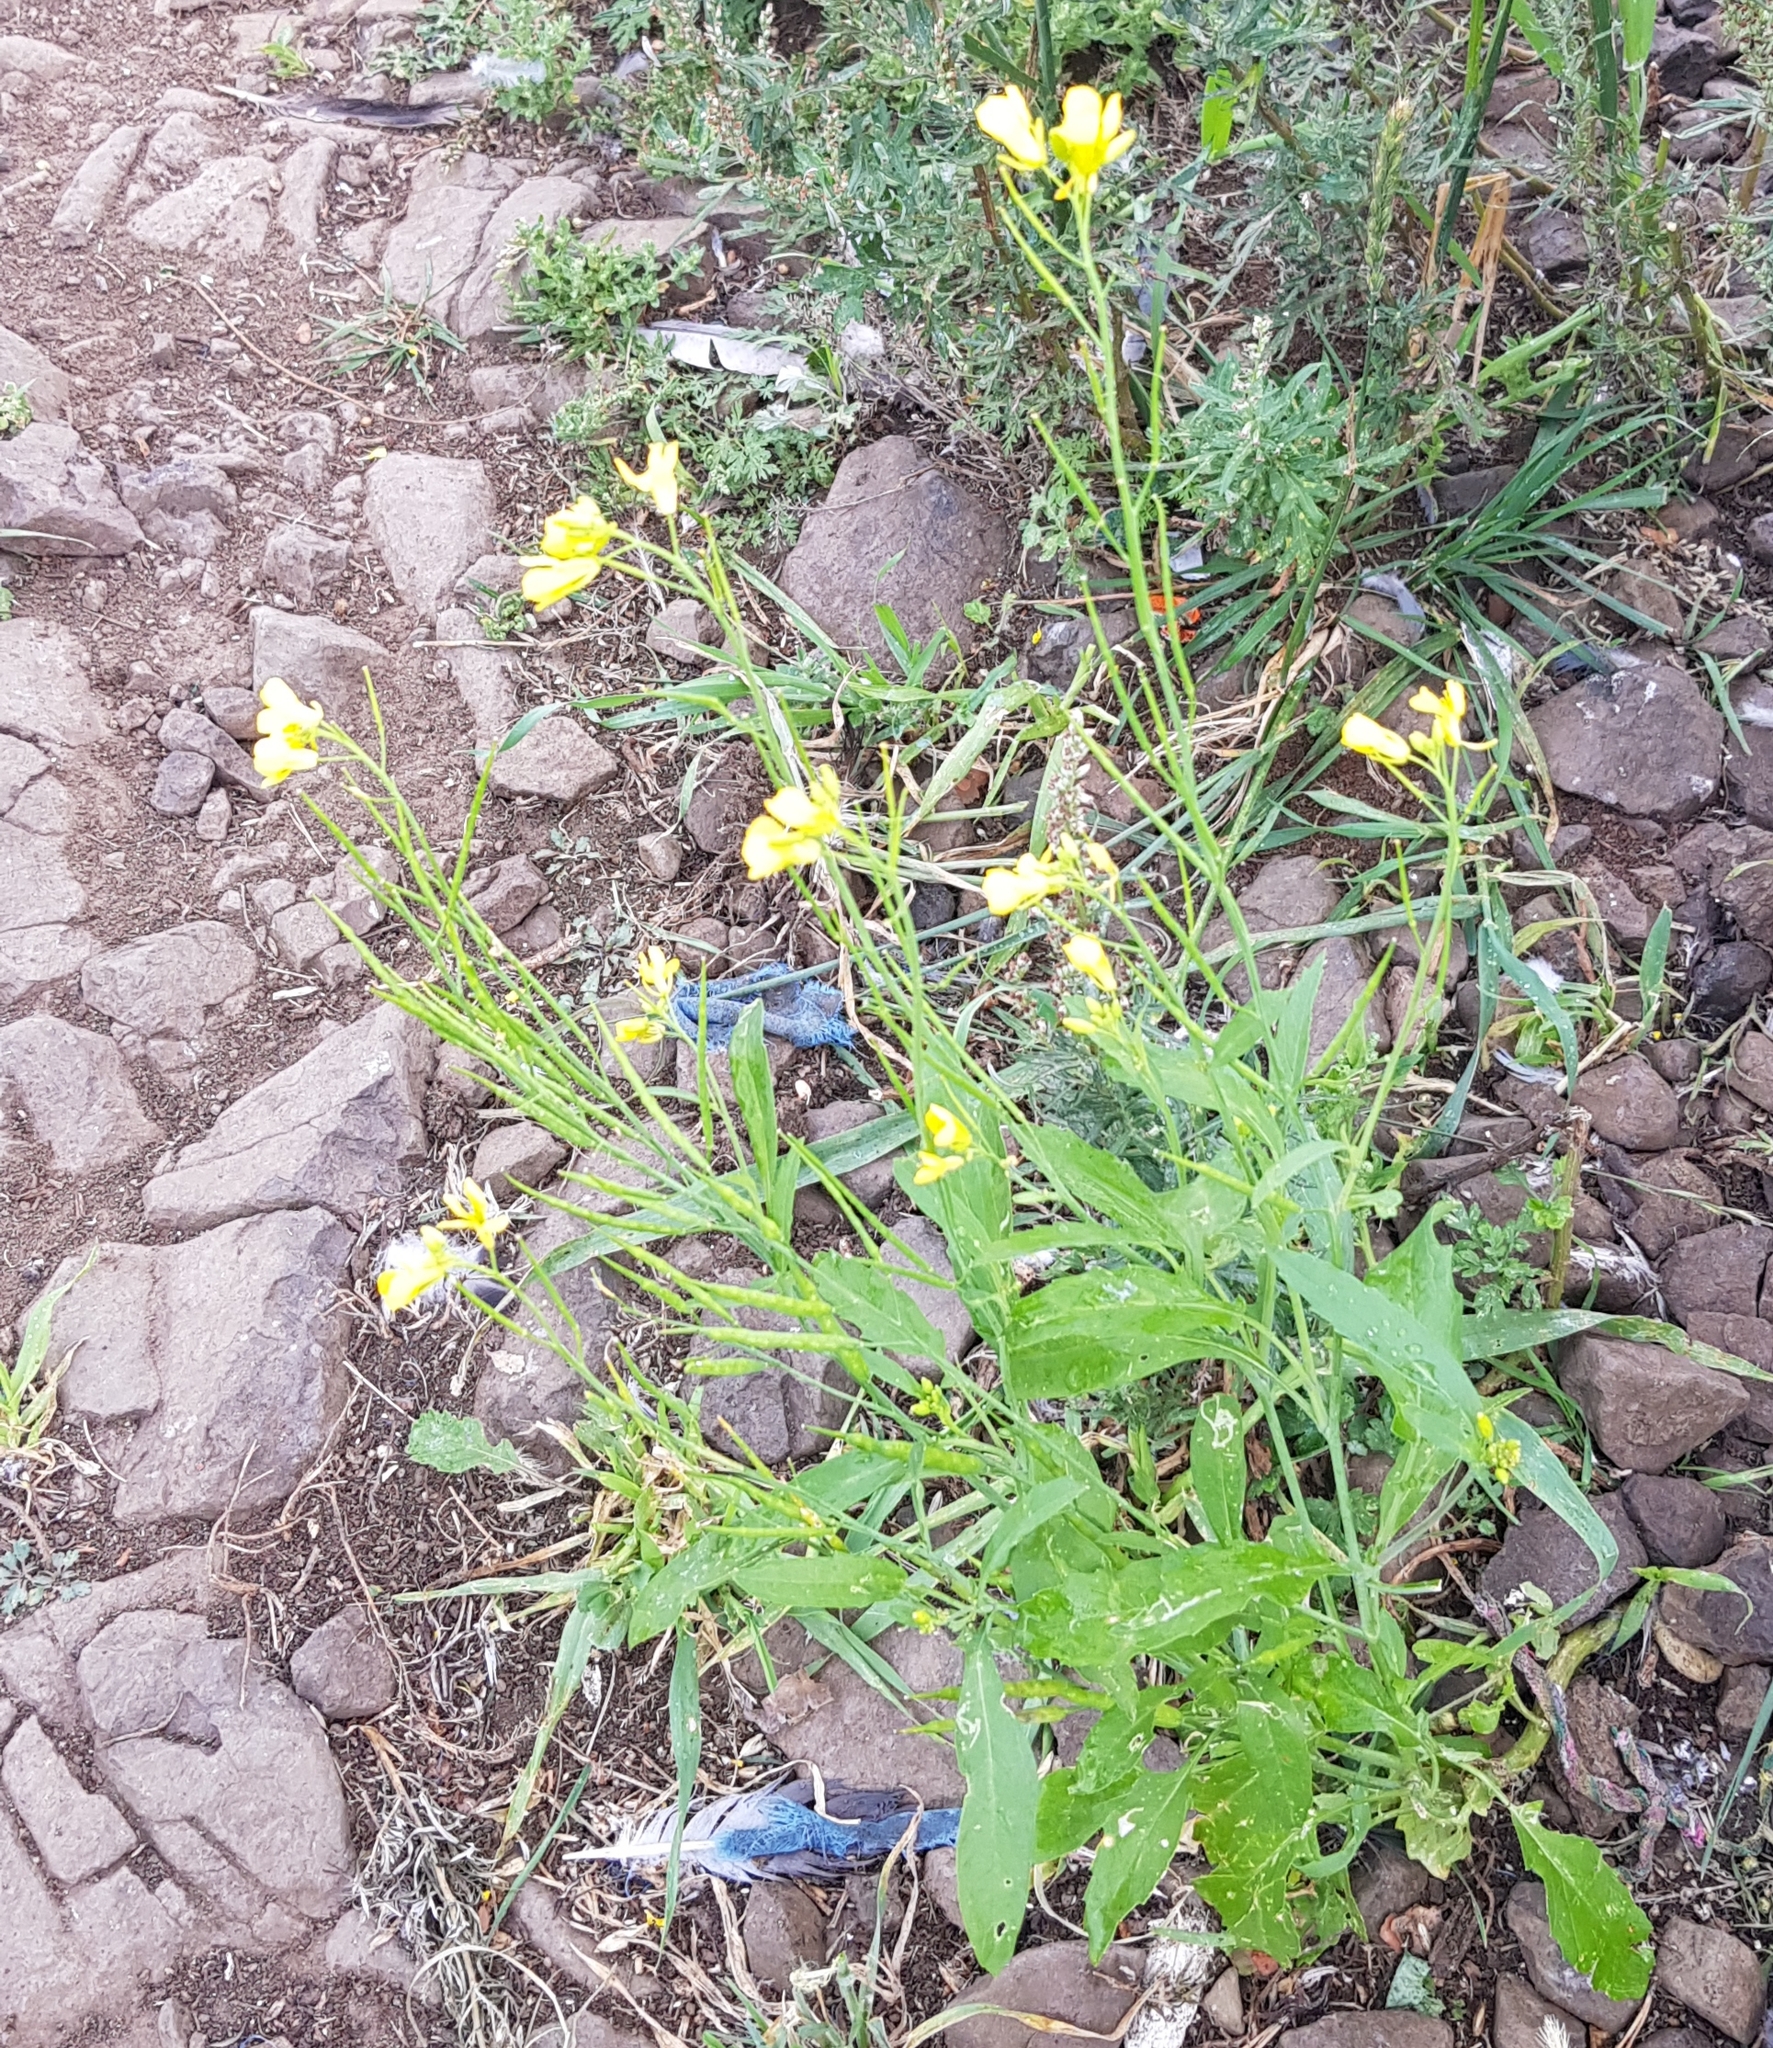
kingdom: Plantae
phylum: Tracheophyta
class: Magnoliopsida
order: Brassicales
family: Brassicaceae
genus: Brassica
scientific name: Brassica juncea
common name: Brown mustard
